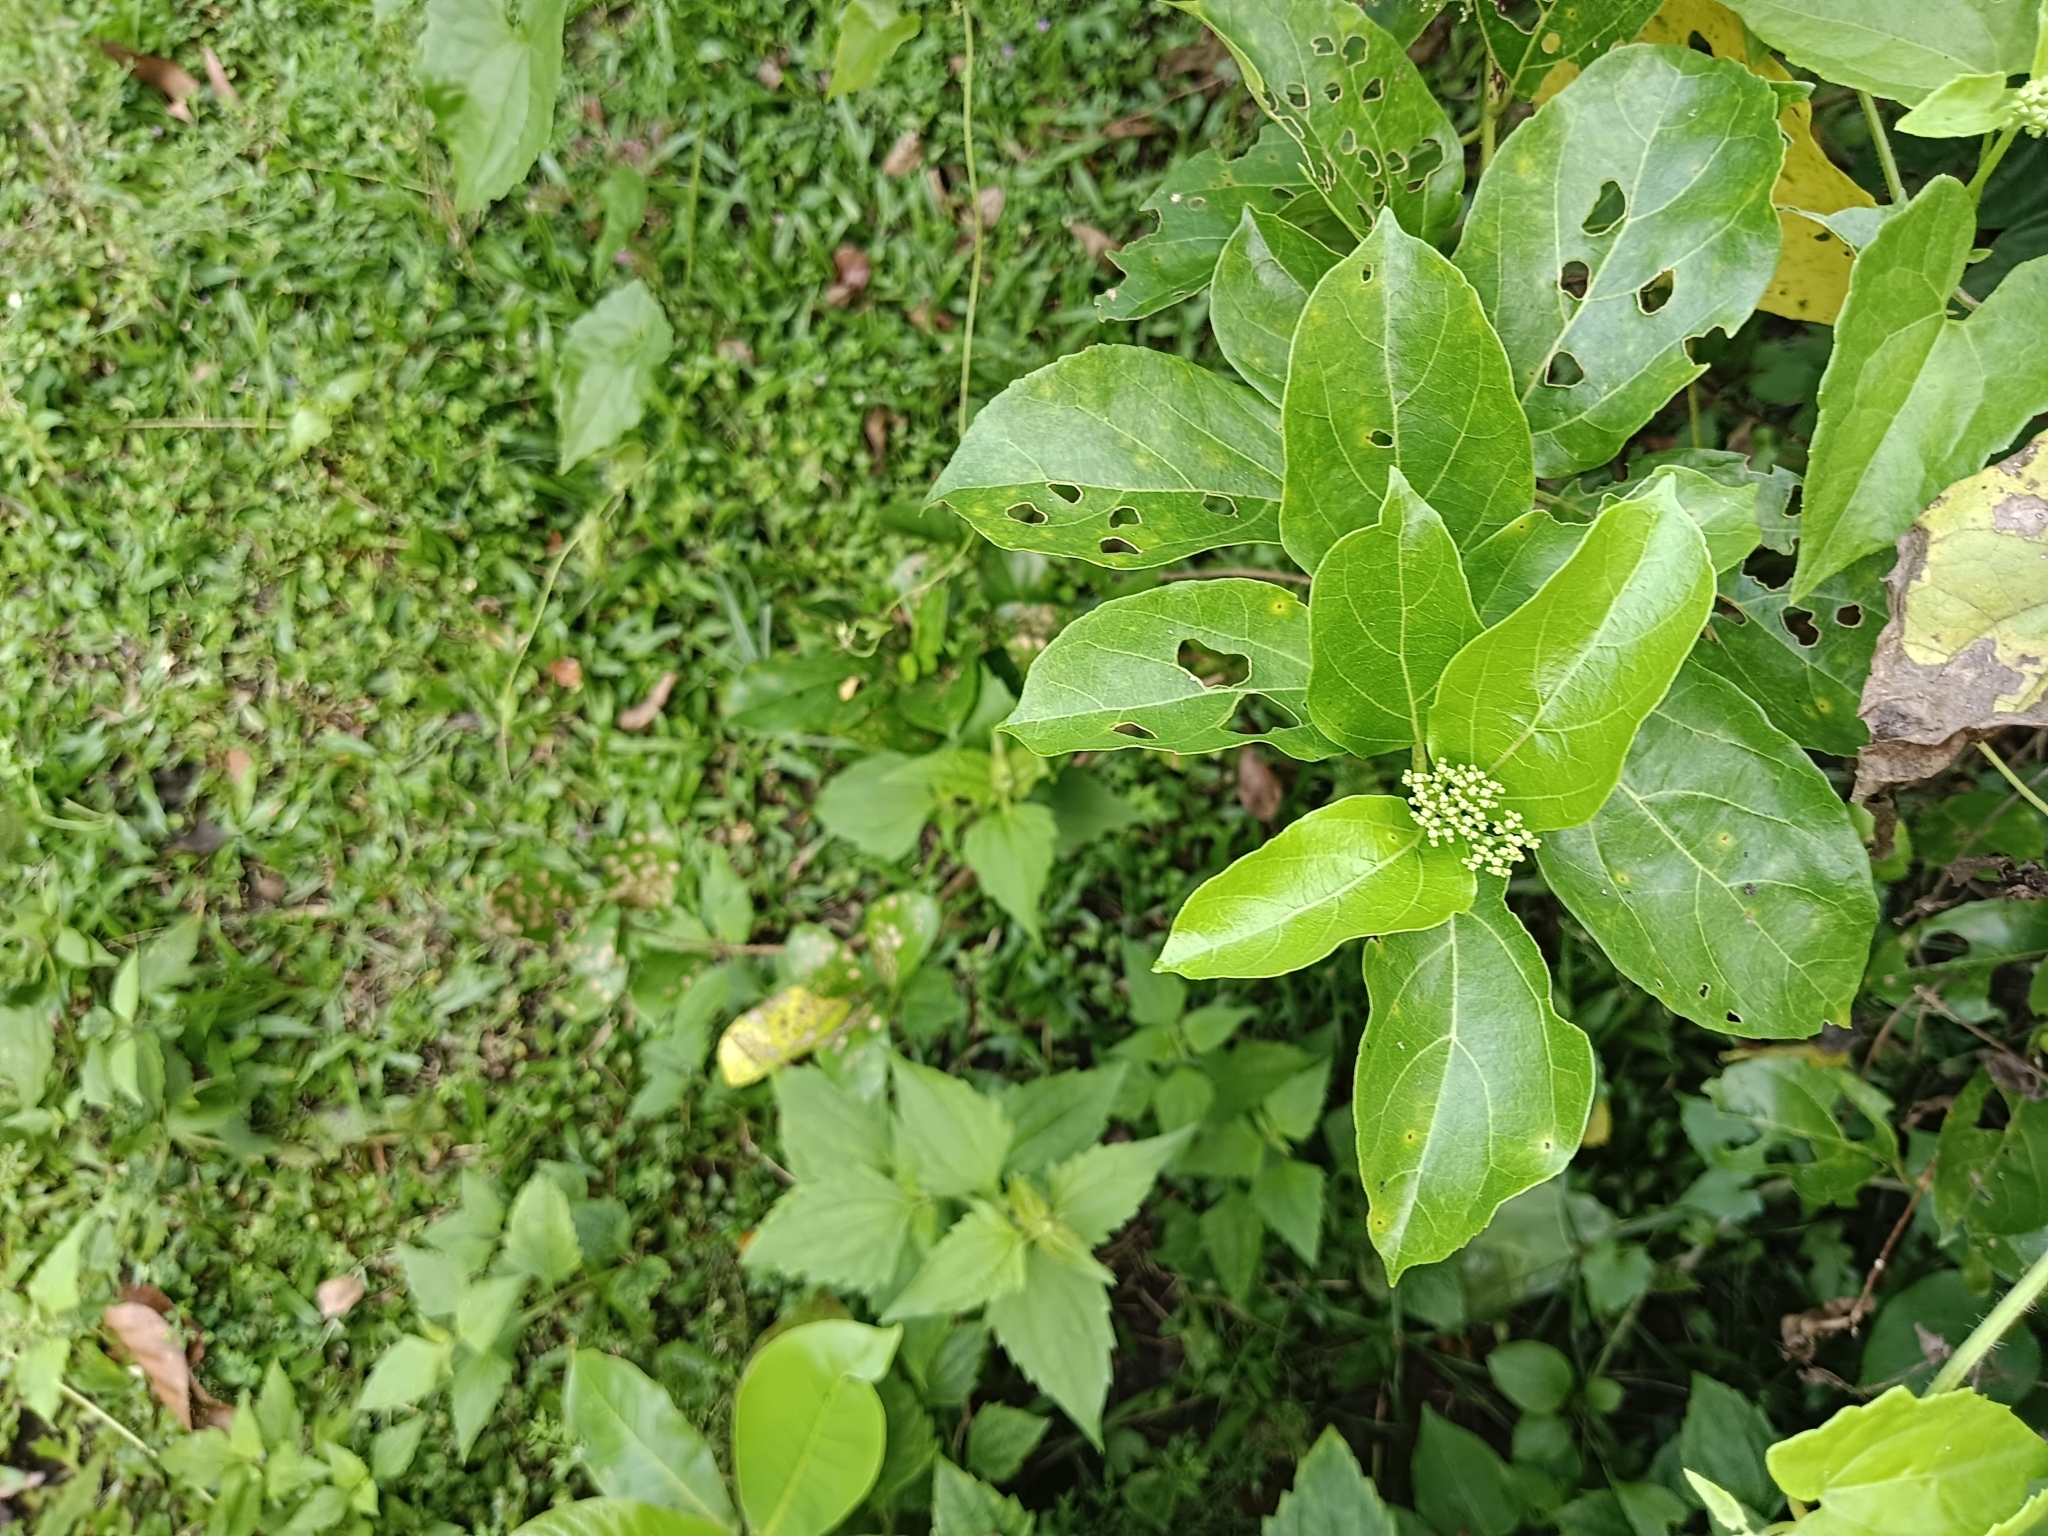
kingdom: Plantae
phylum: Tracheophyta
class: Magnoliopsida
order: Lamiales
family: Lamiaceae
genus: Premna
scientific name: Premna serratifolia
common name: Bastard guelder
